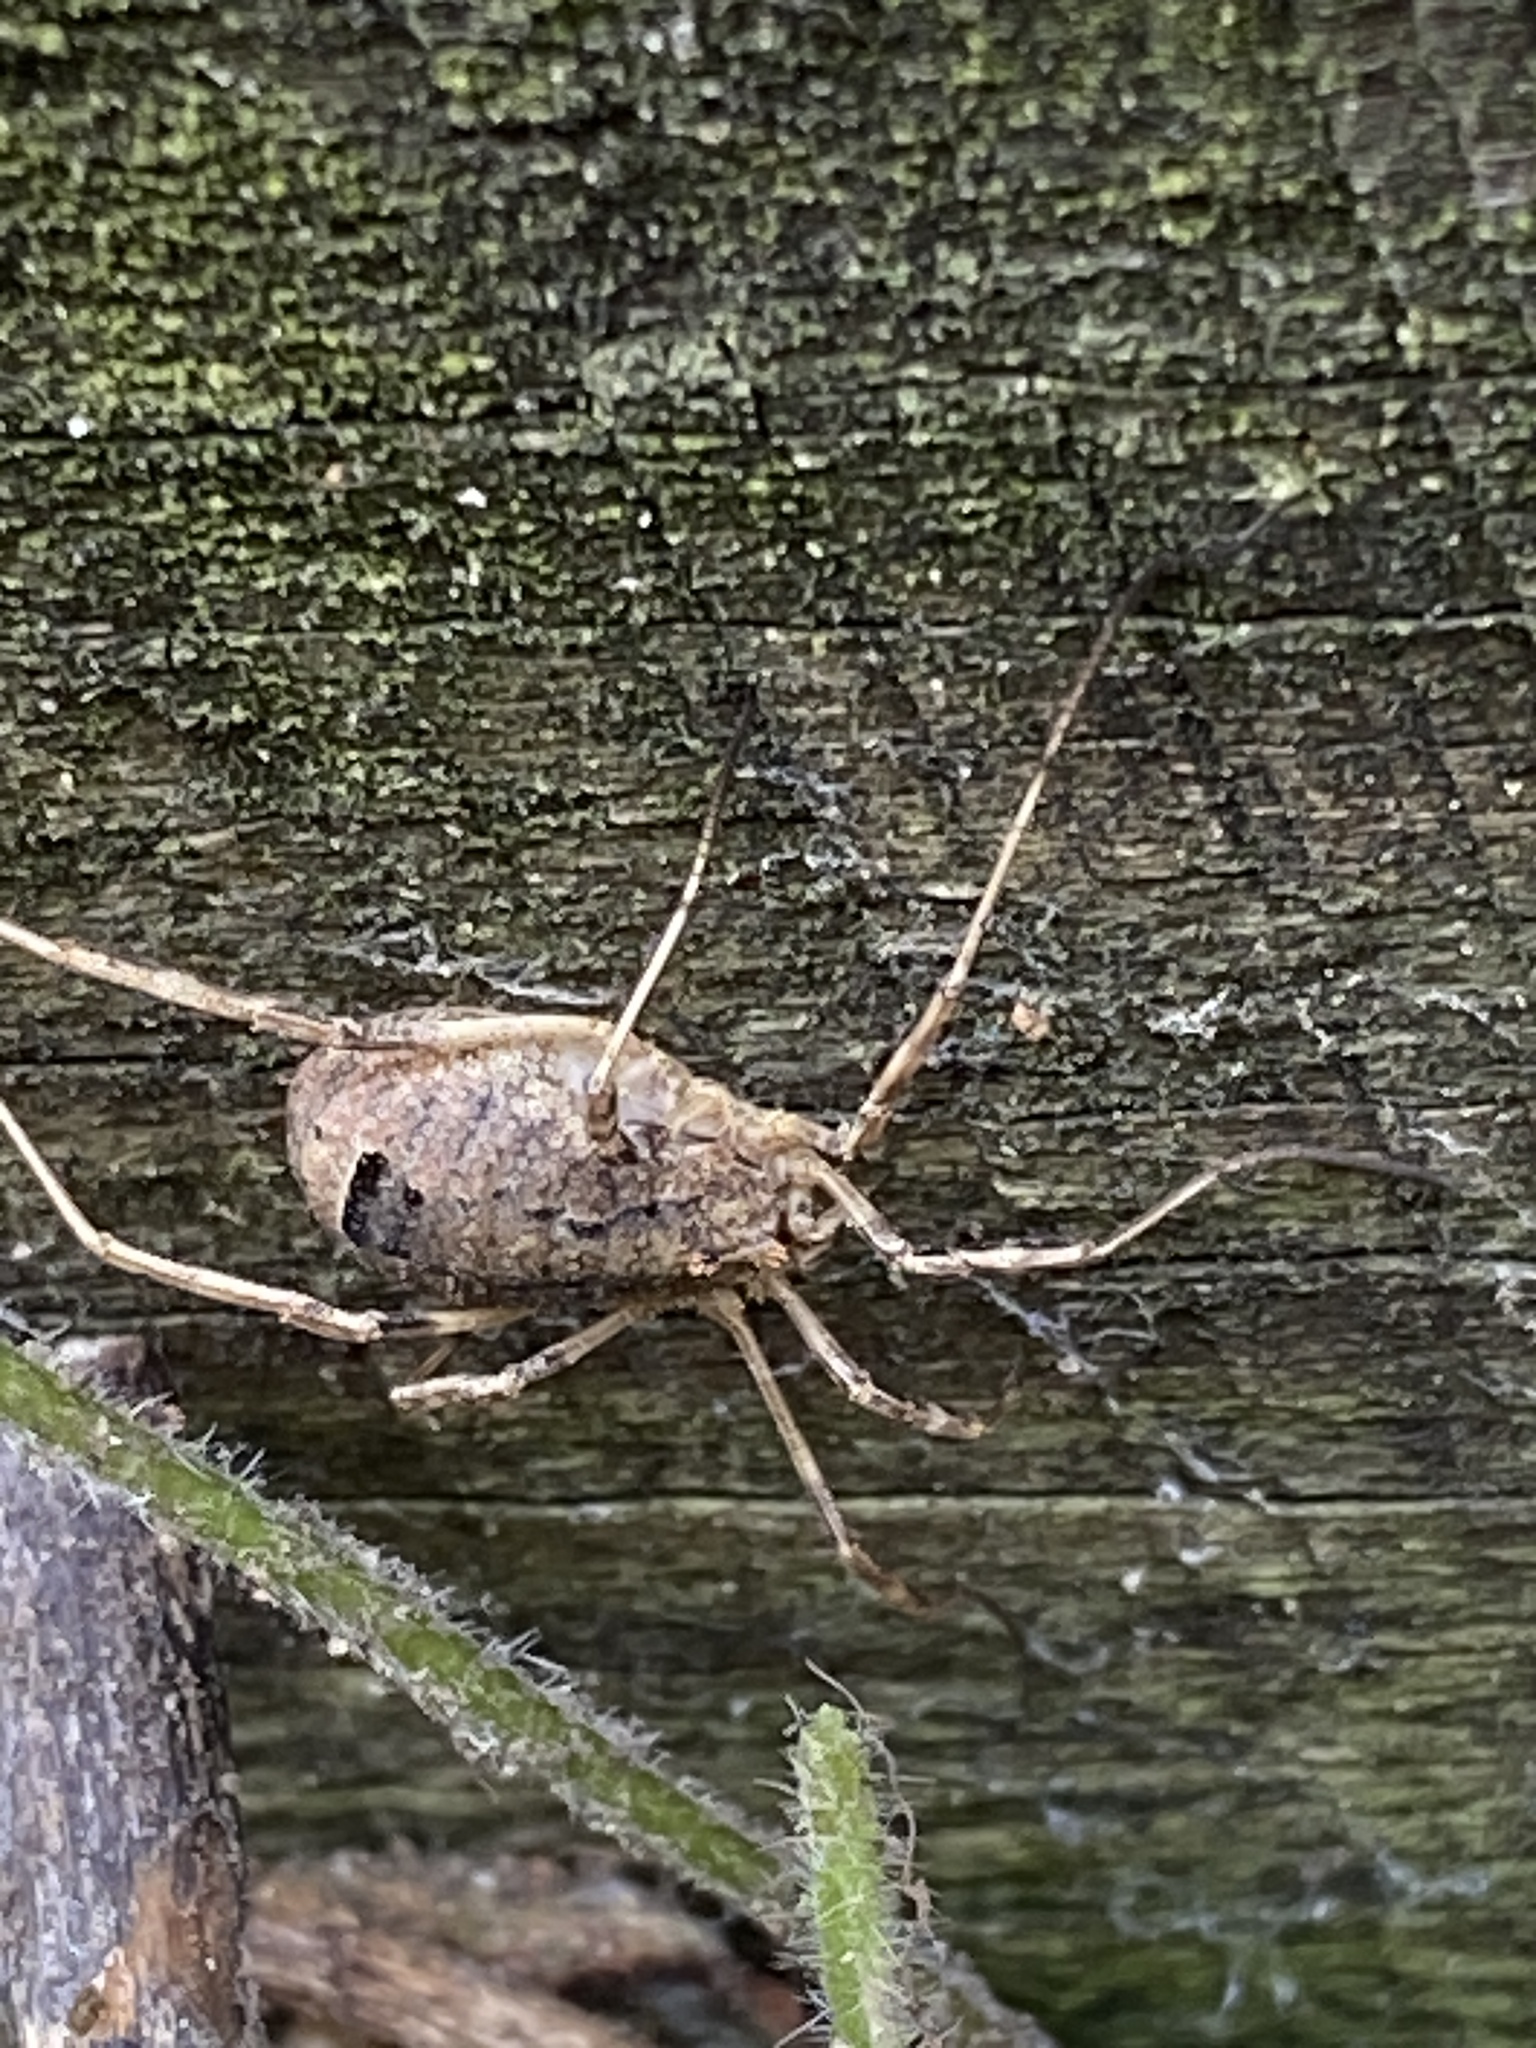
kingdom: Animalia
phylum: Arthropoda
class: Arachnida
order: Opiliones
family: Phalangiidae
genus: Odiellus
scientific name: Odiellus spinosus
